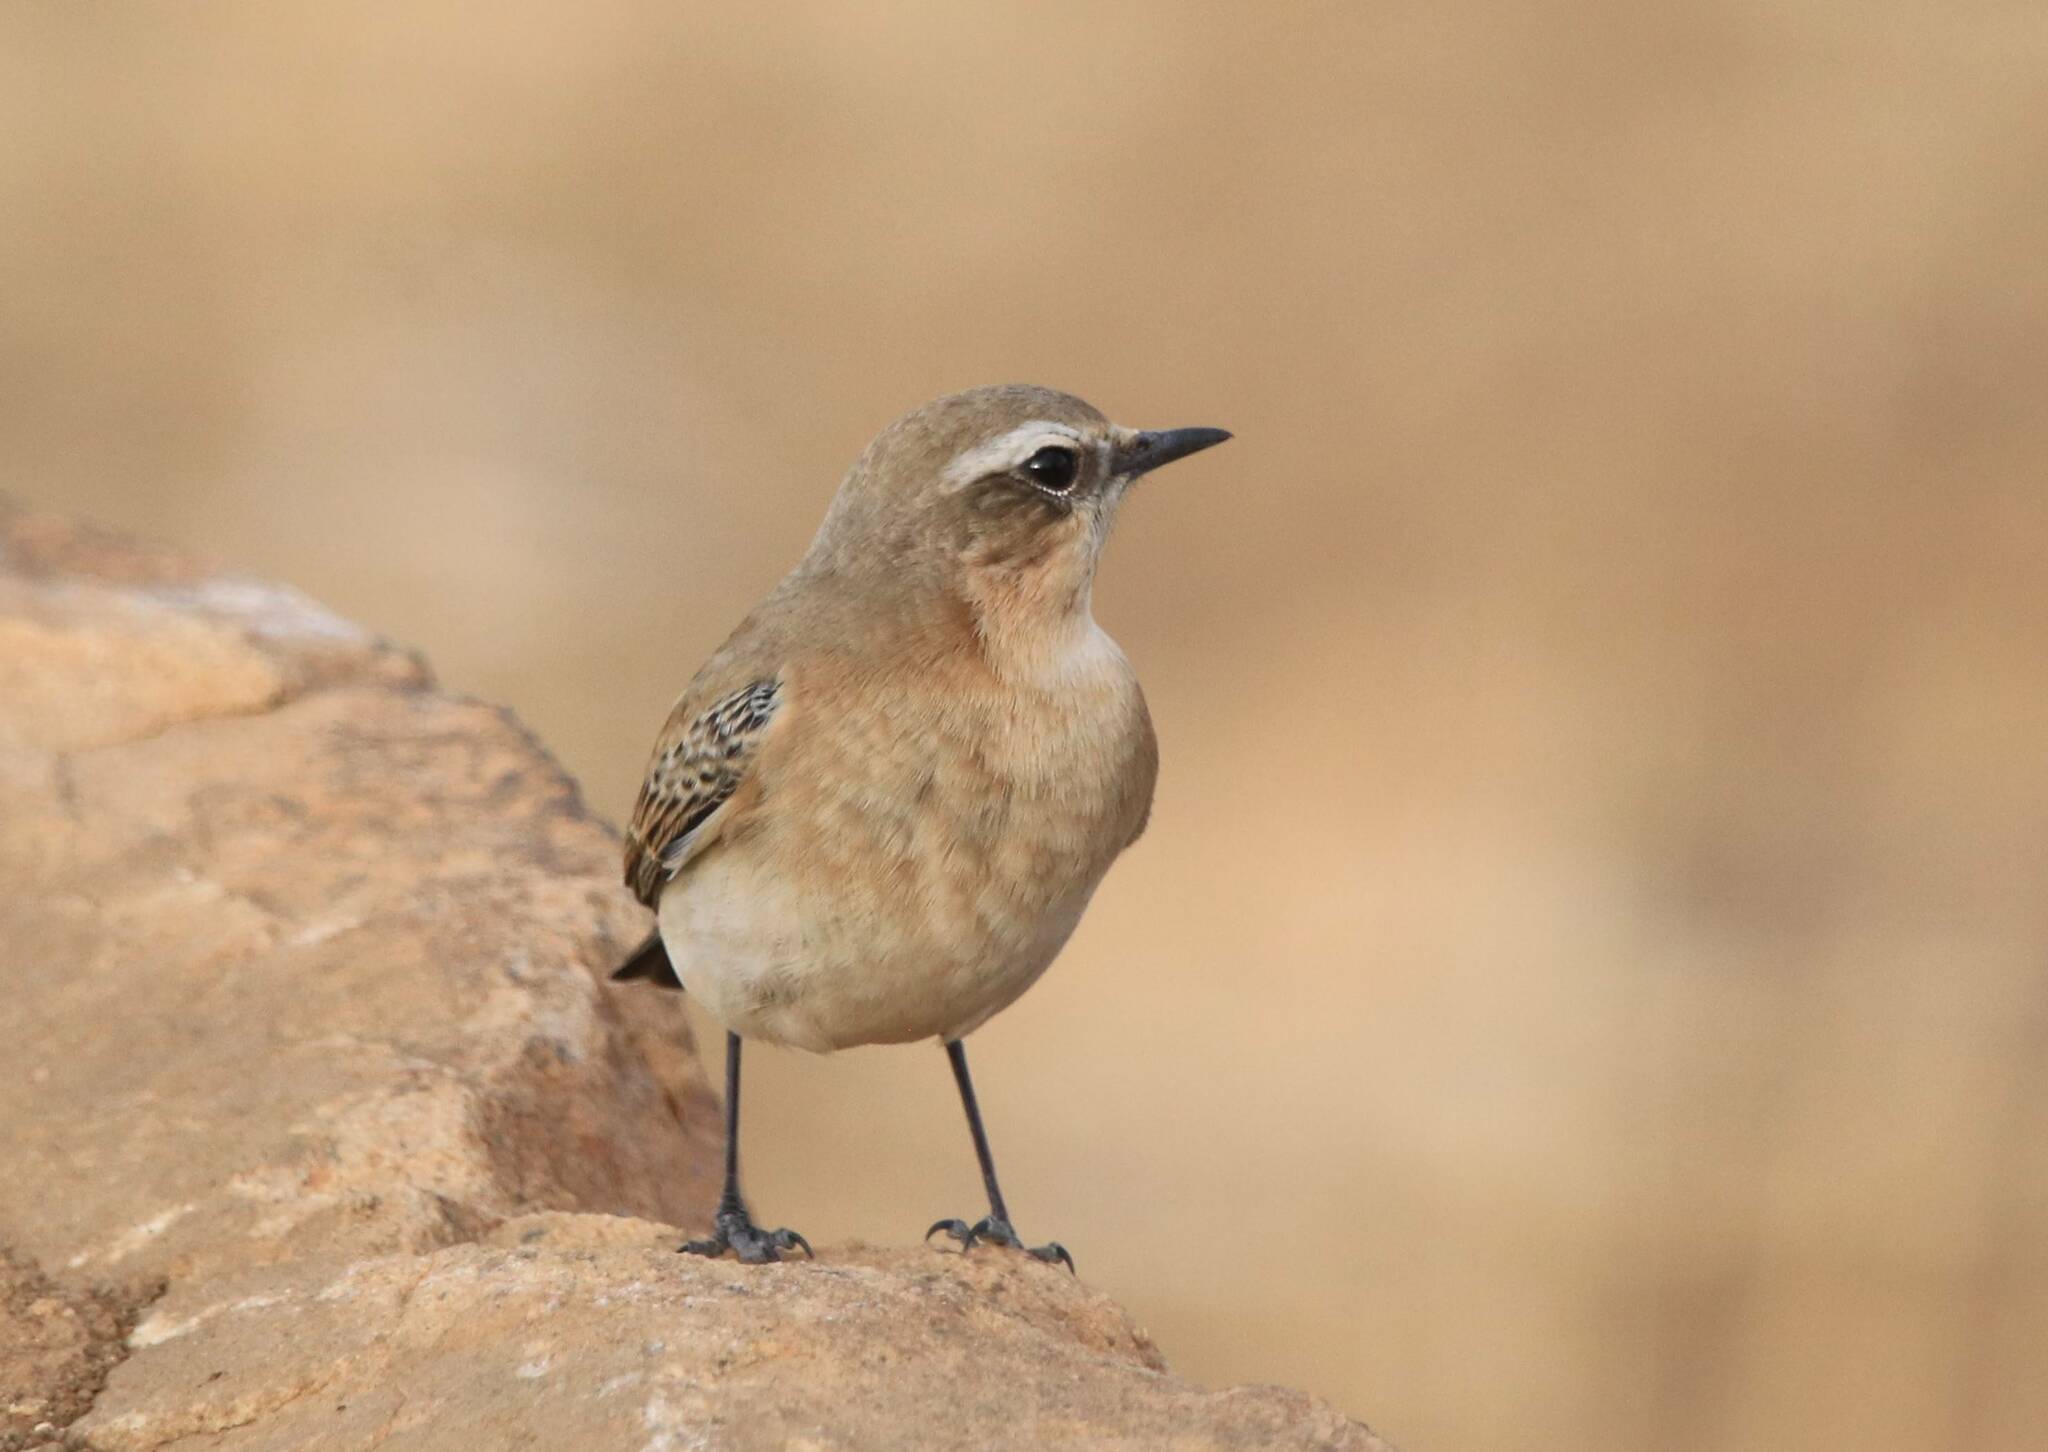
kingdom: Animalia
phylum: Chordata
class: Aves
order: Passeriformes
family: Muscicapidae
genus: Oenanthe
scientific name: Oenanthe oenanthe
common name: Northern wheatear
